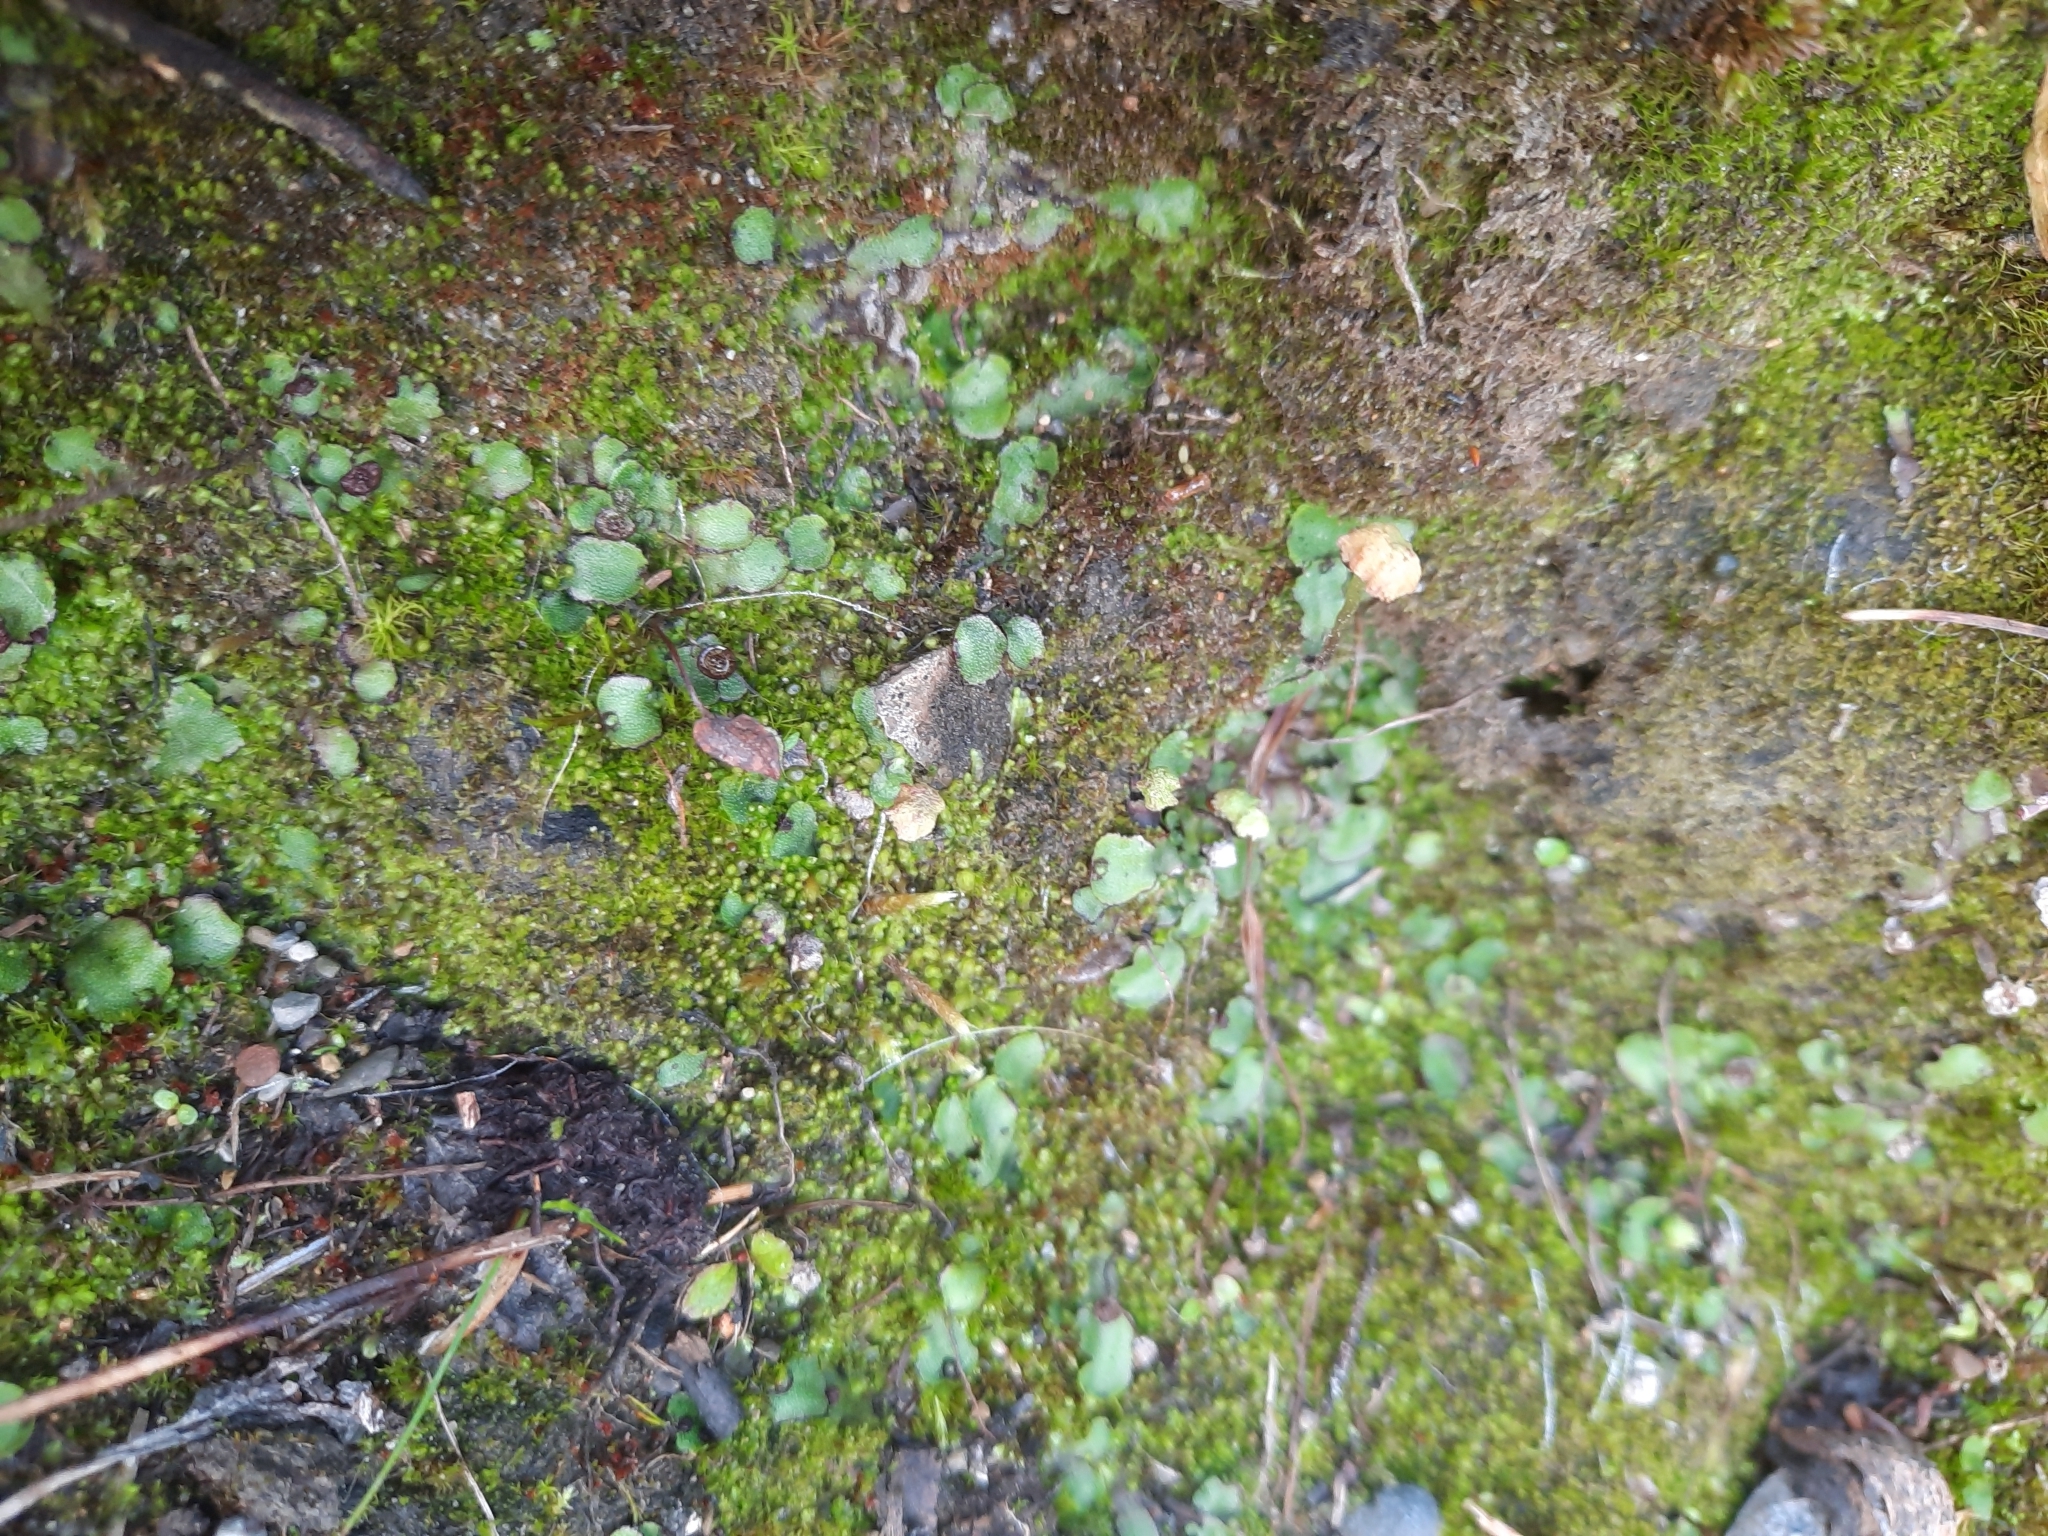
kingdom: Plantae
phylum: Marchantiophyta
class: Marchantiopsida
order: Marchantiales
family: Marchantiaceae
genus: Marchantia
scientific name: Marchantia quadrata
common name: Narrow mushroom-headed liverwort
